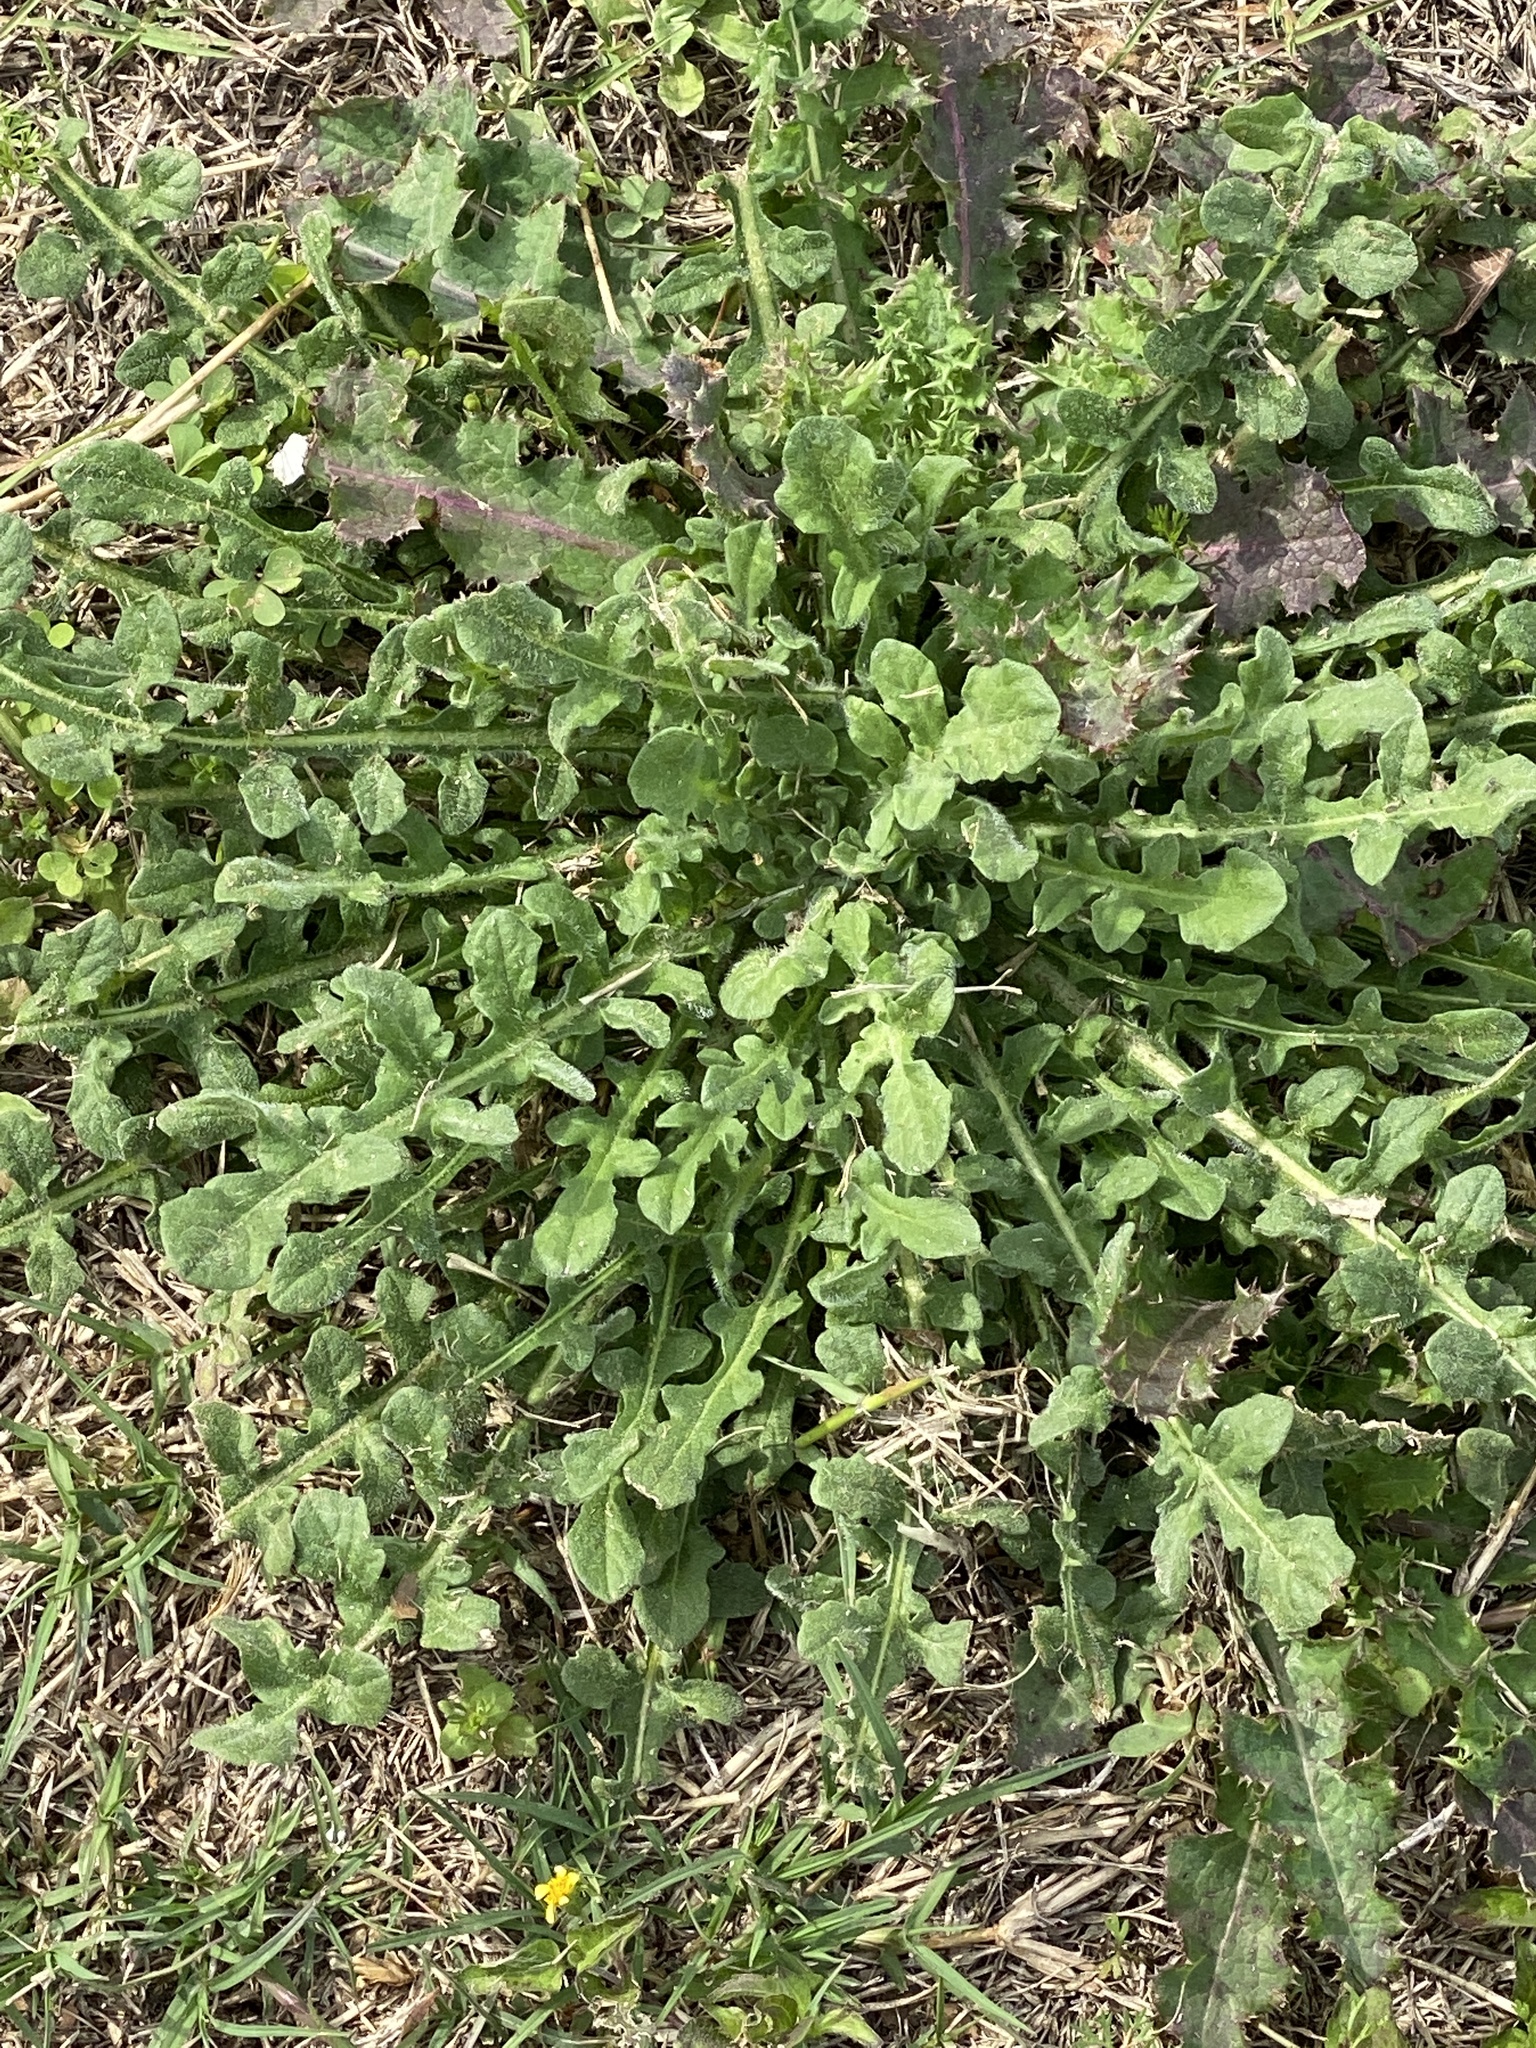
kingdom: Plantae
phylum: Tracheophyta
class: Magnoliopsida
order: Asterales
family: Asteraceae
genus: Centaurea
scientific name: Centaurea melitensis
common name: Maltese star-thistle
